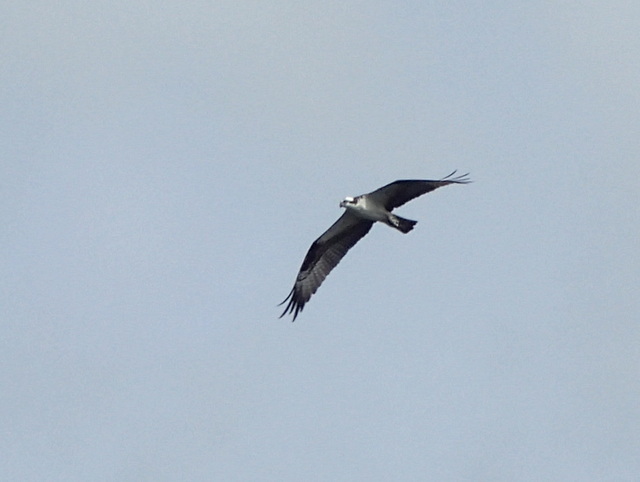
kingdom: Animalia
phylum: Chordata
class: Aves
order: Accipitriformes
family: Pandionidae
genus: Pandion
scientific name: Pandion haliaetus
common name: Osprey
